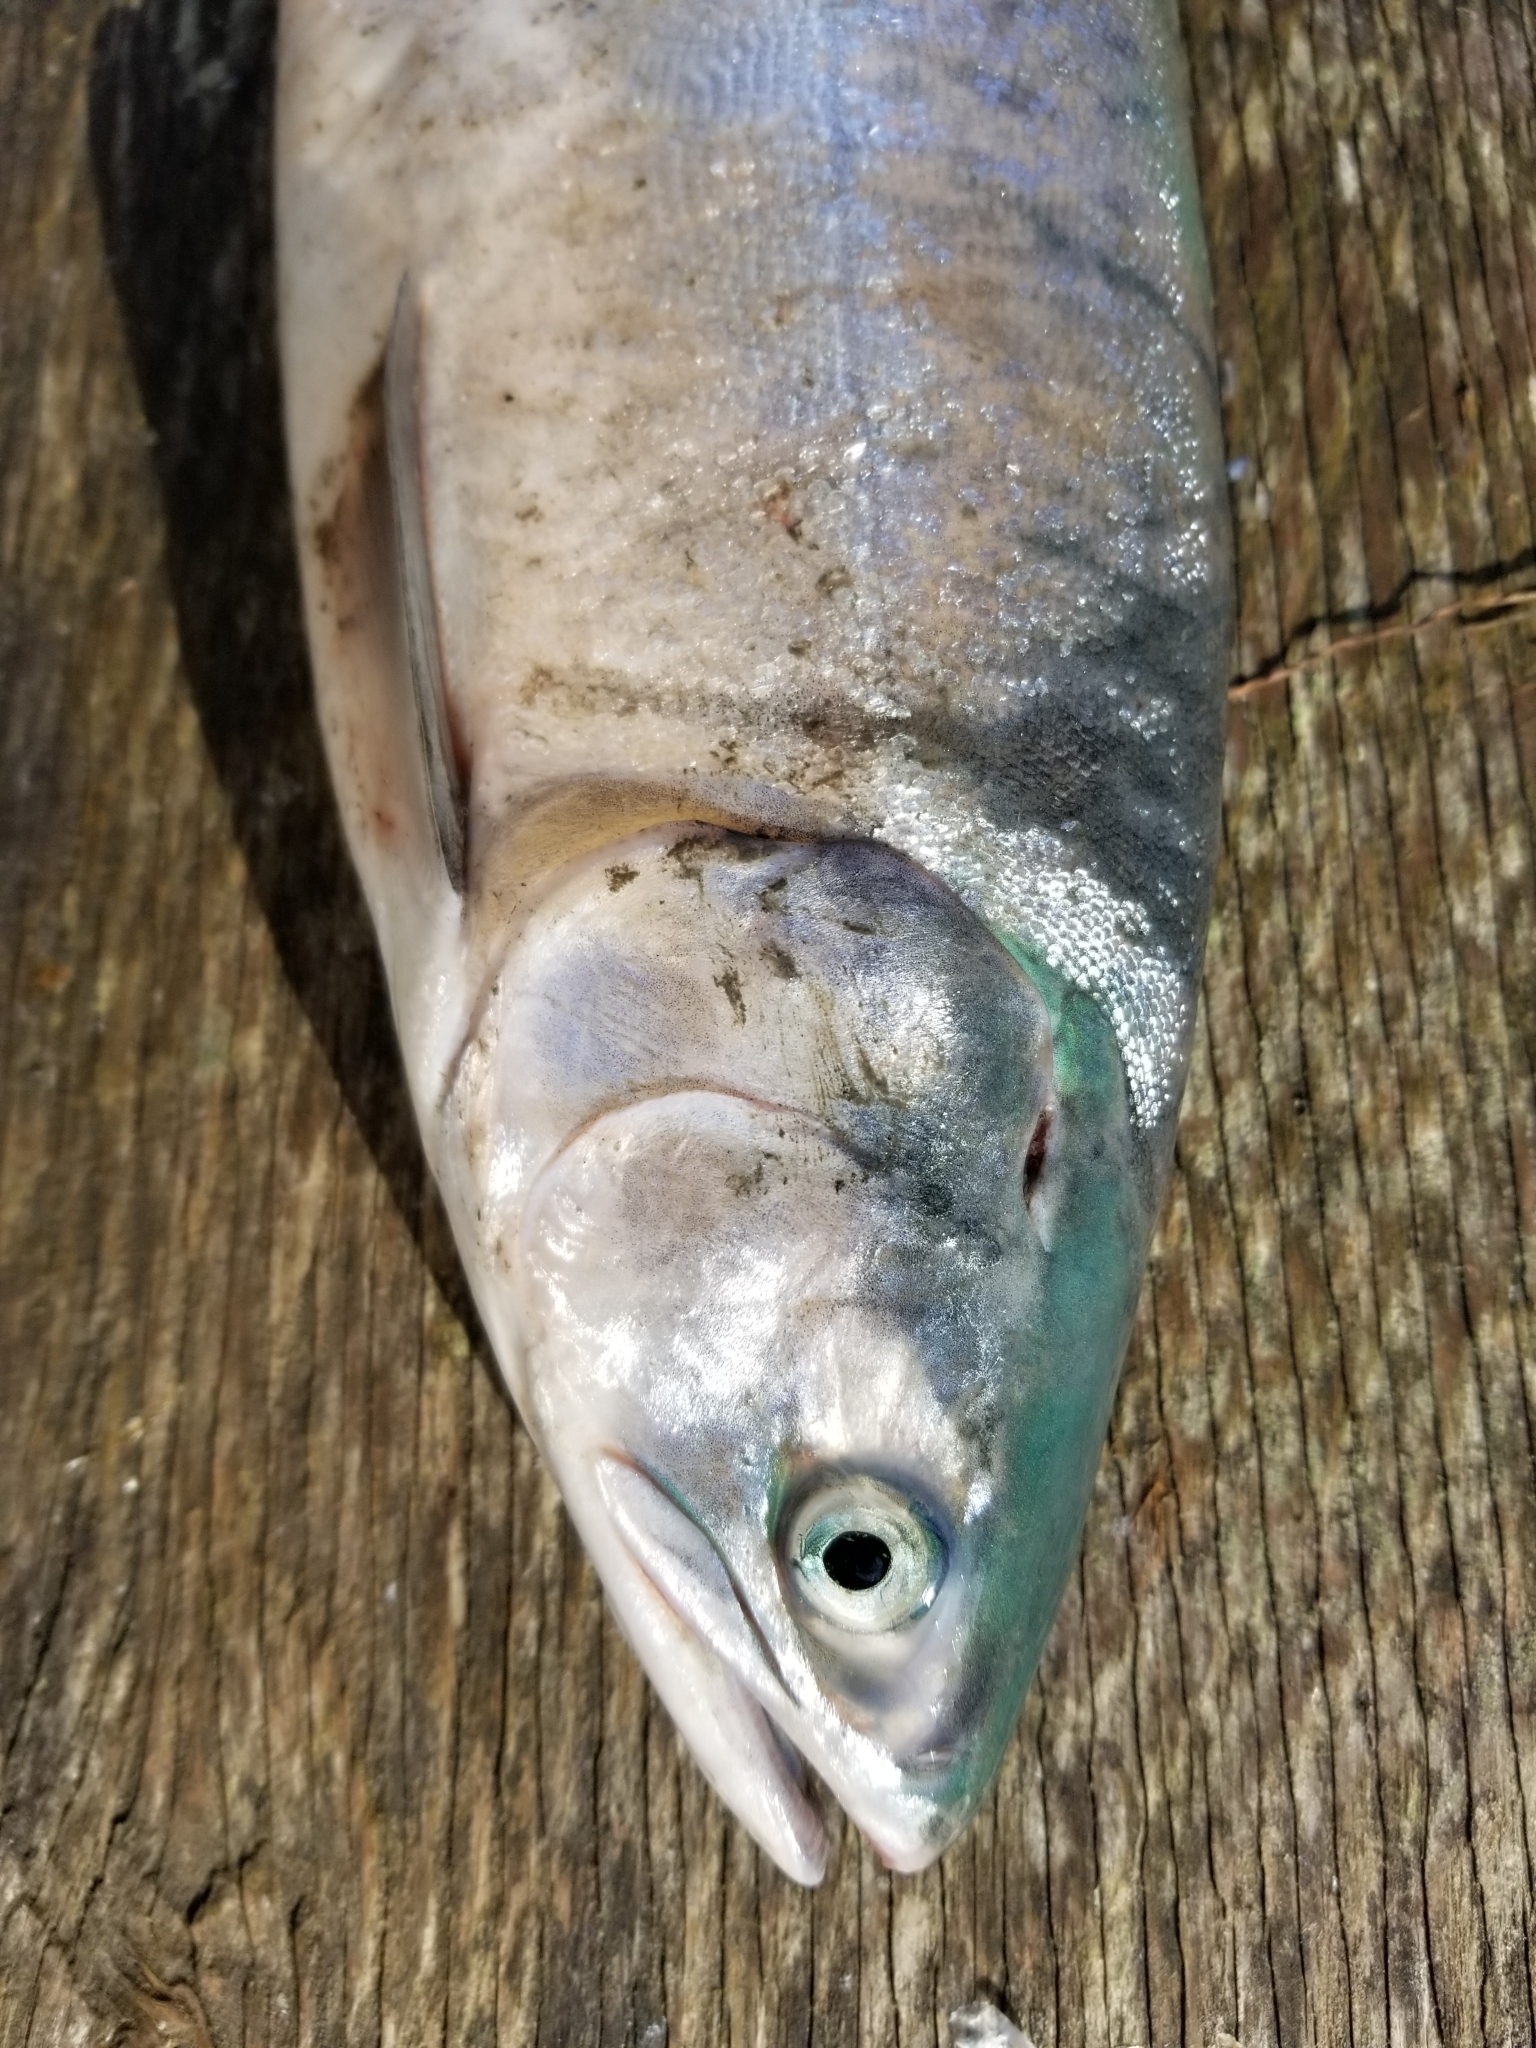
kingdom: Animalia
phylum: Chordata
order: Salmoniformes
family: Salmonidae
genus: Oncorhynchus
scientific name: Oncorhynchus gorbuscha
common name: Humpback salmon
